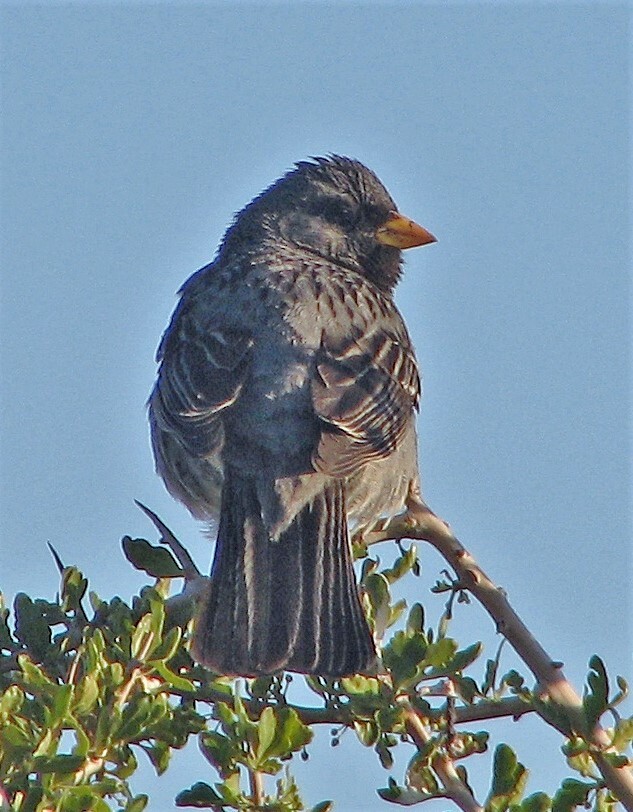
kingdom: Animalia
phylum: Chordata
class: Aves
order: Passeriformes
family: Thraupidae
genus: Rhopospina
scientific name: Rhopospina fruticeti
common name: Mourning sierra finch
